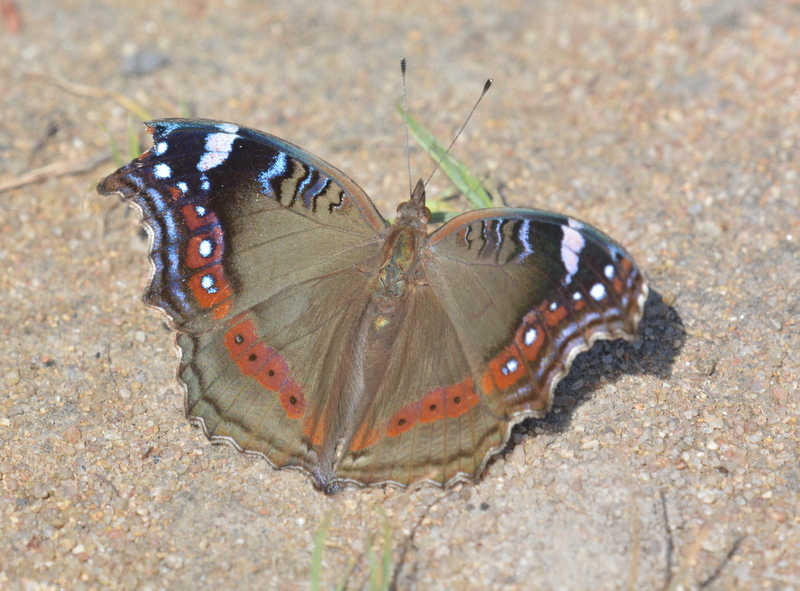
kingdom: Animalia
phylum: Arthropoda
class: Insecta
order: Lepidoptera
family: Nymphalidae
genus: Junonia
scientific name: Junonia archesia
